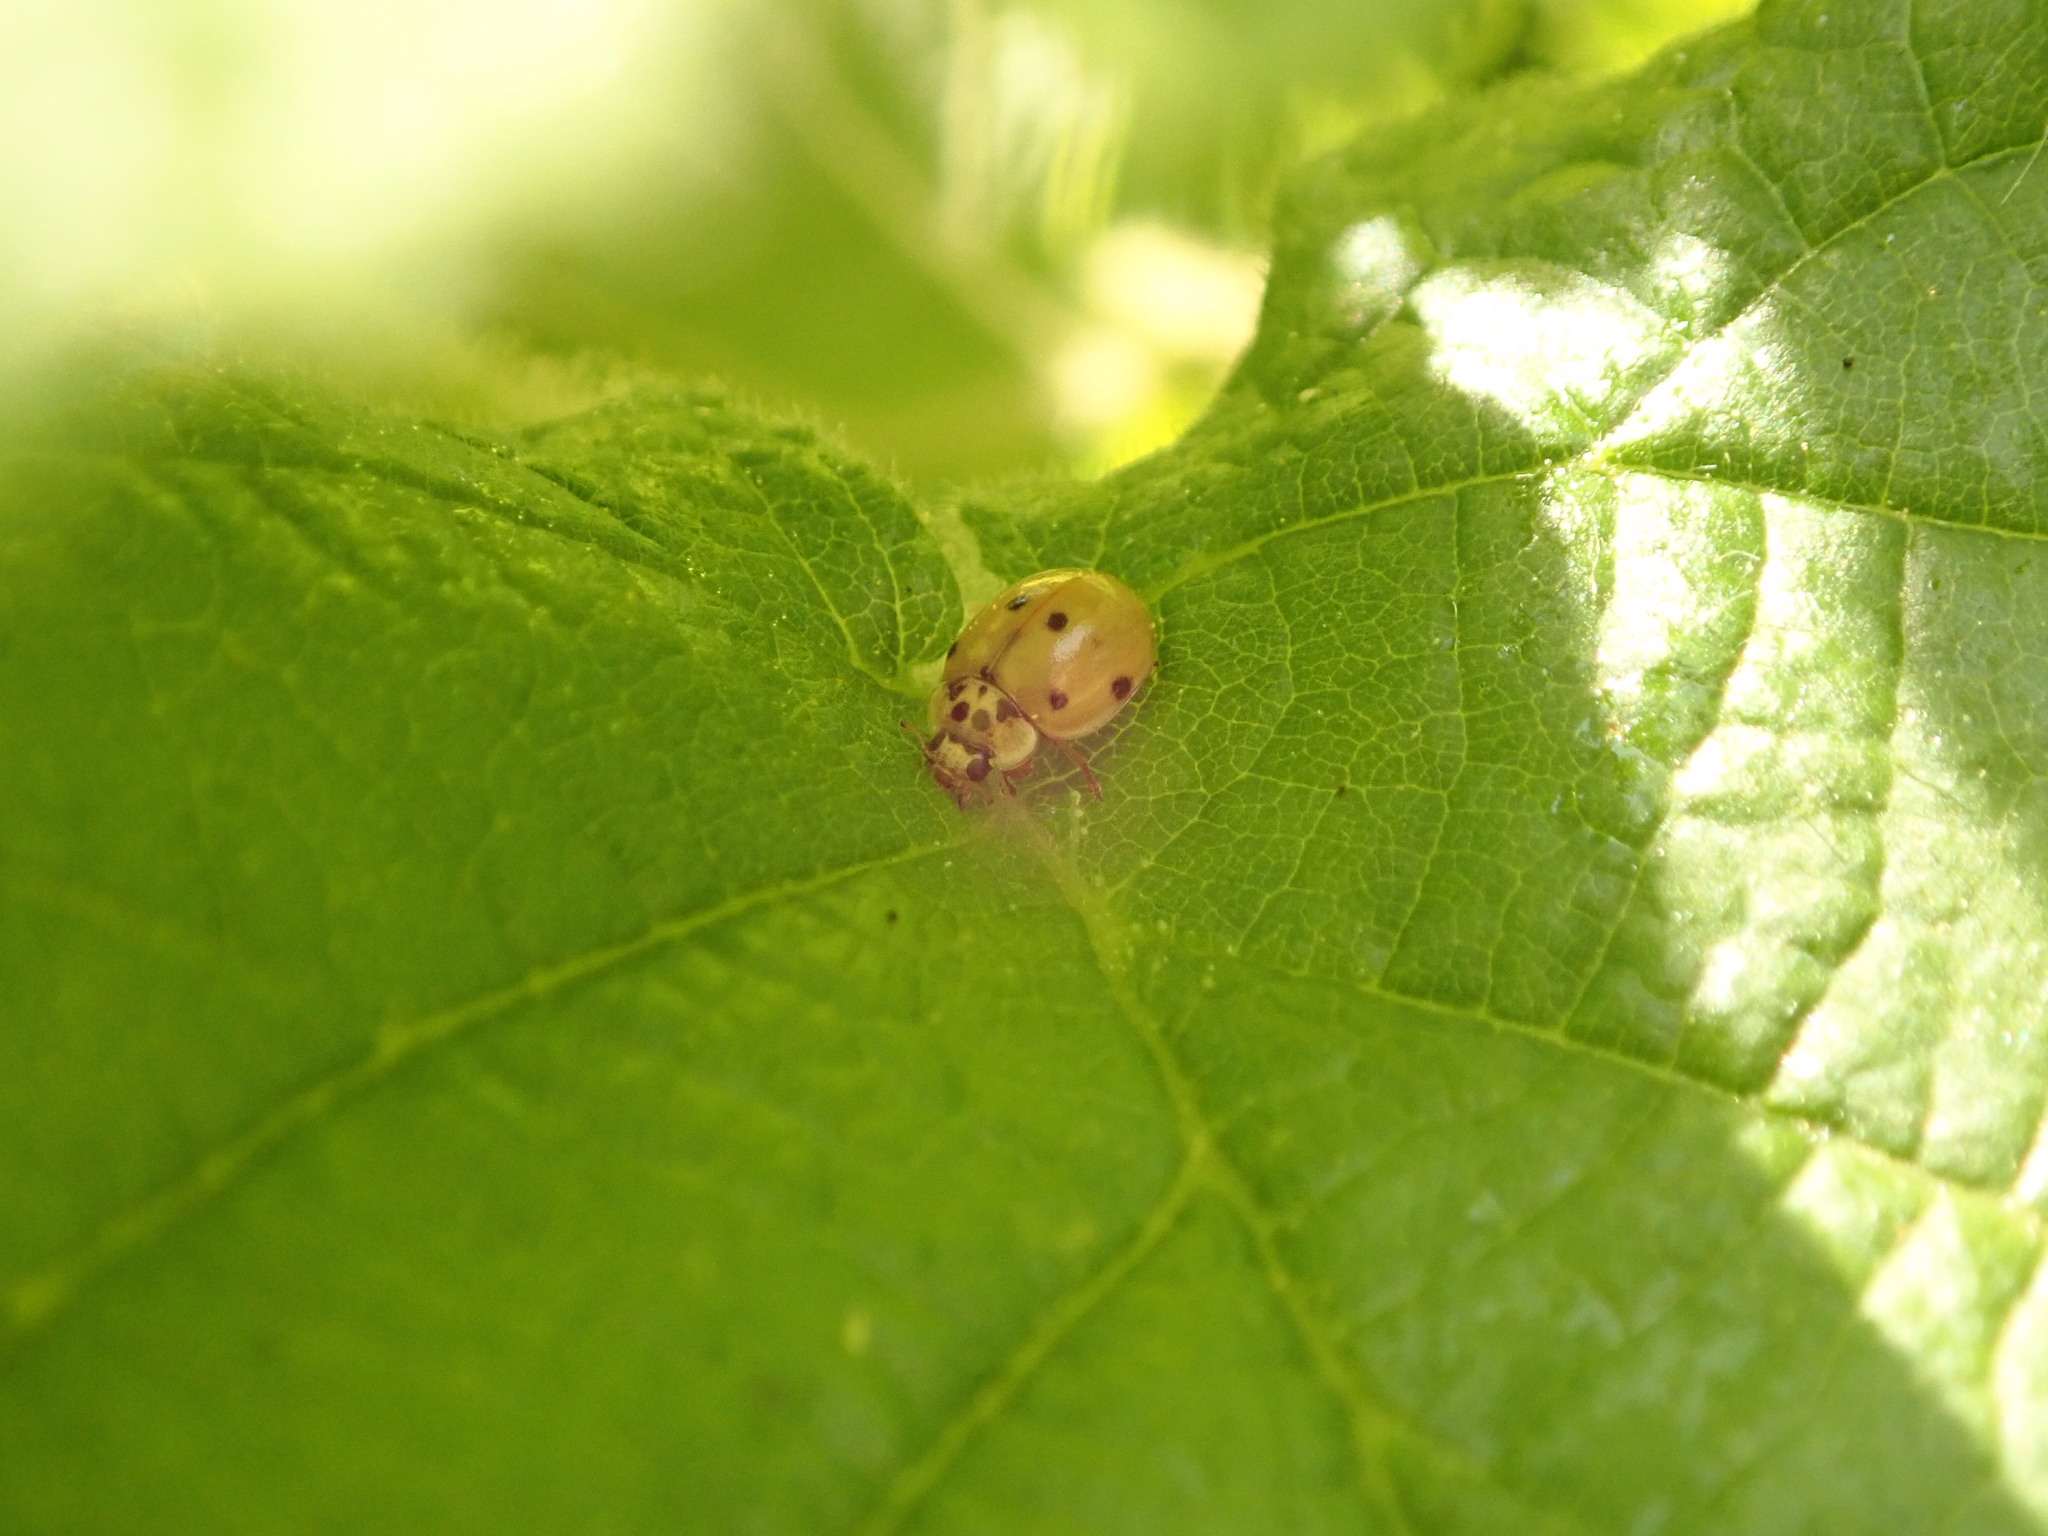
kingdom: Animalia
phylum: Arthropoda
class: Insecta
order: Coleoptera
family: Coccinellidae
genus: Adalia
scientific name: Adalia decempunctata
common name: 10-spot ladybird
